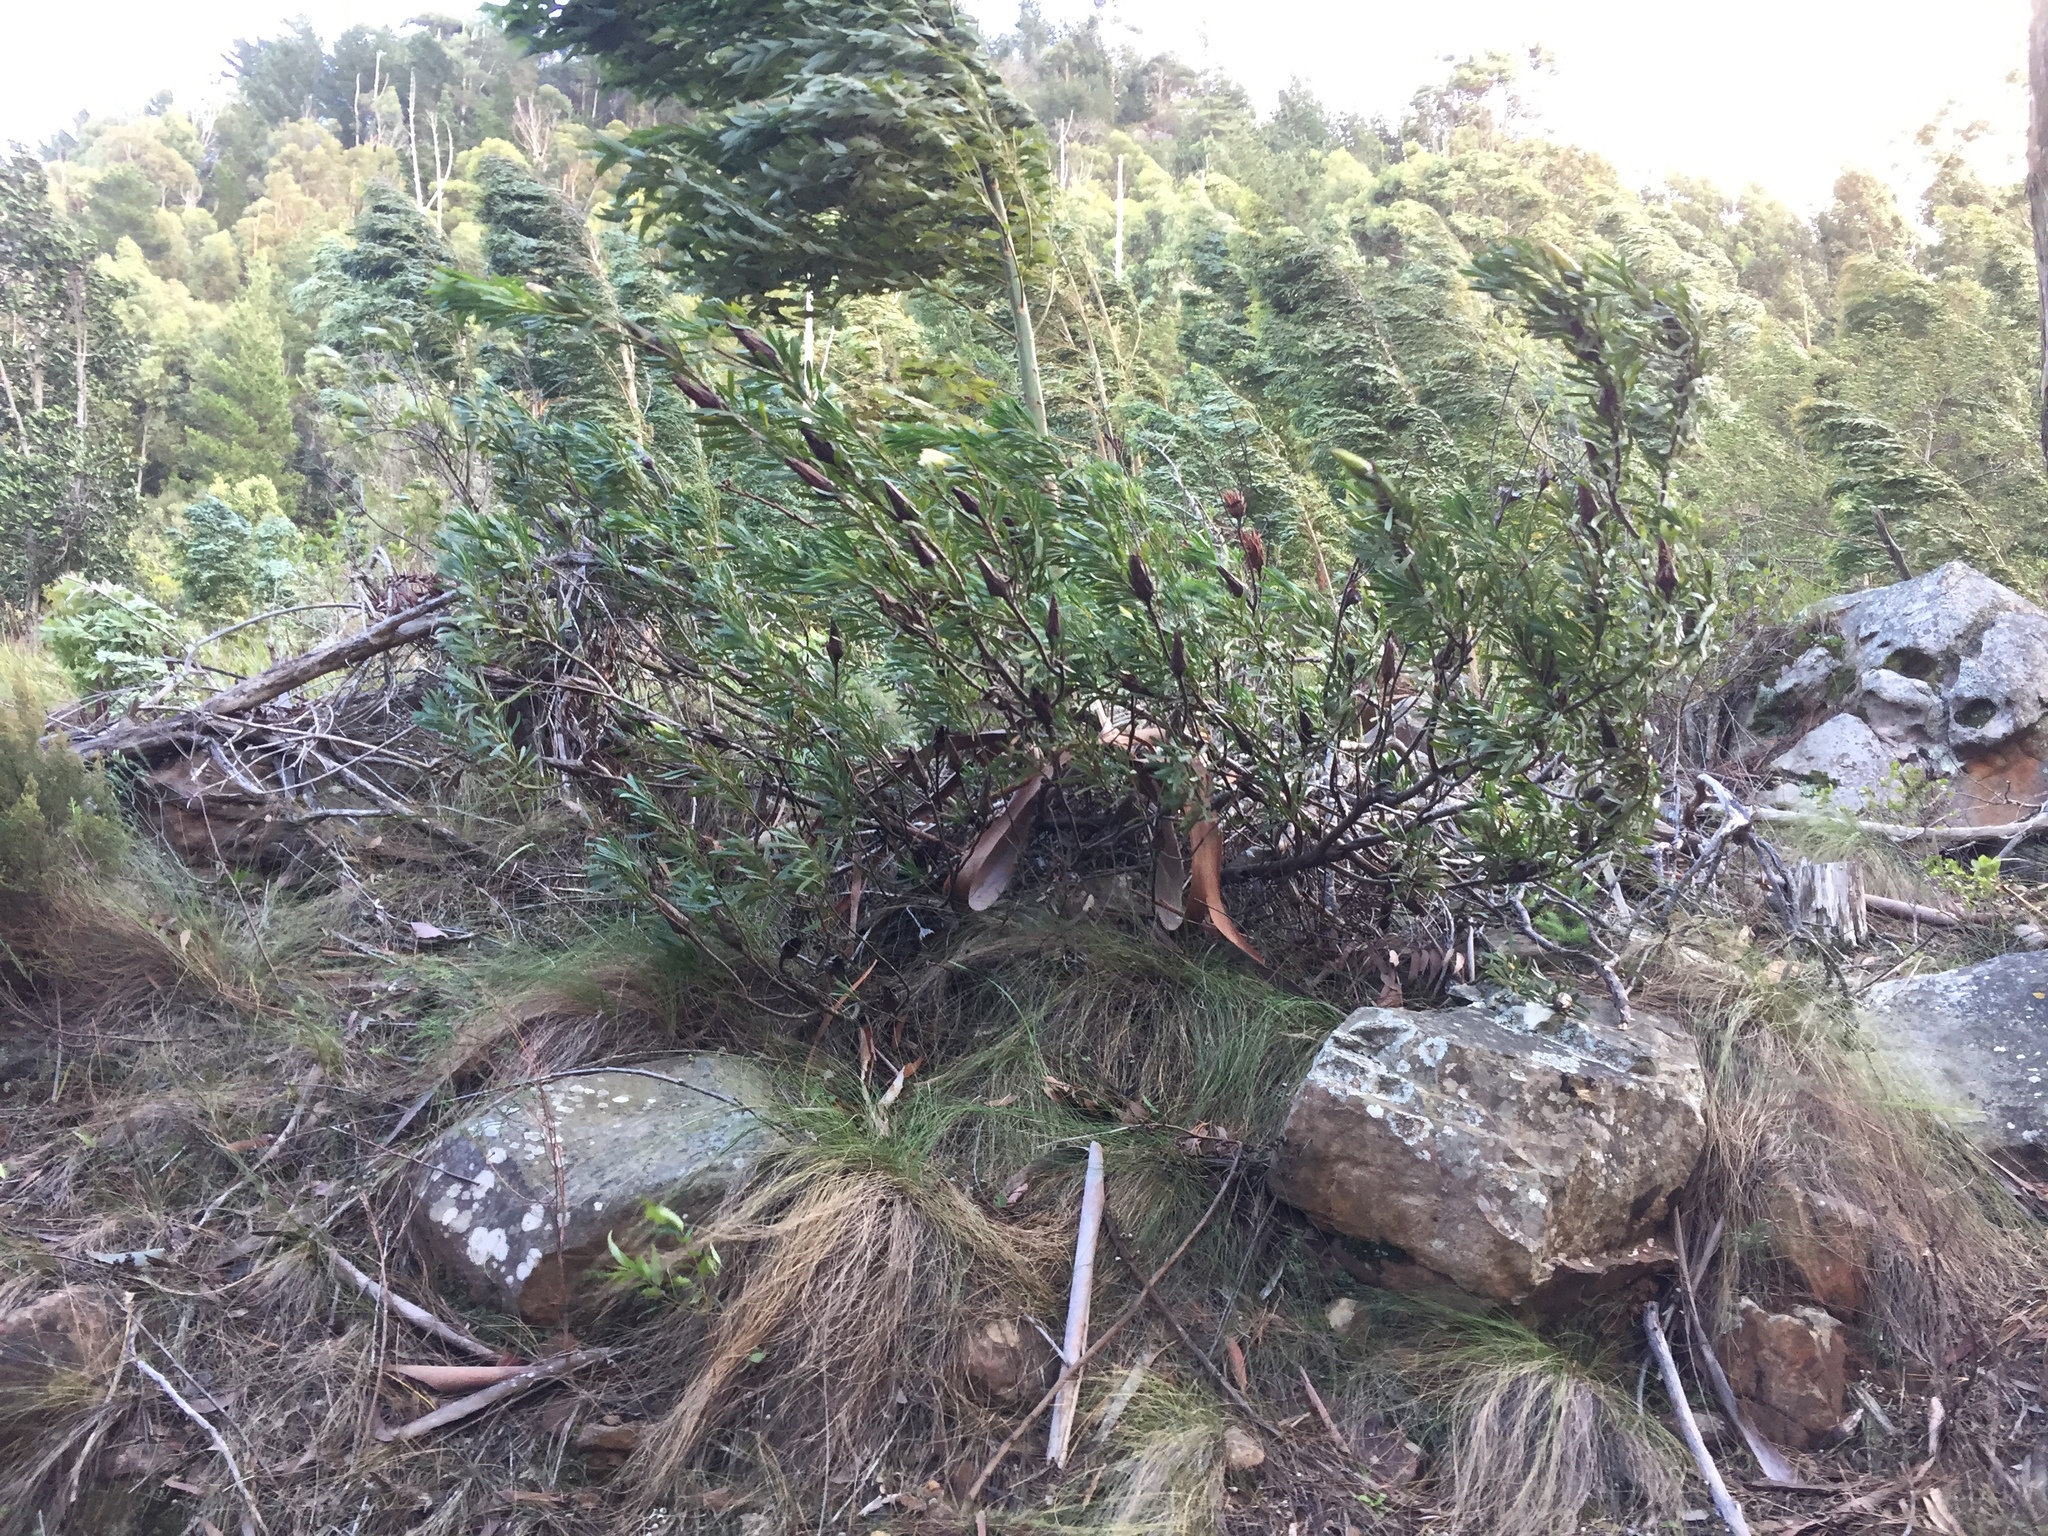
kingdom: Plantae
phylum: Tracheophyta
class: Magnoliopsida
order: Proteales
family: Proteaceae
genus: Protea
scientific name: Protea repens
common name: Sugarbush
